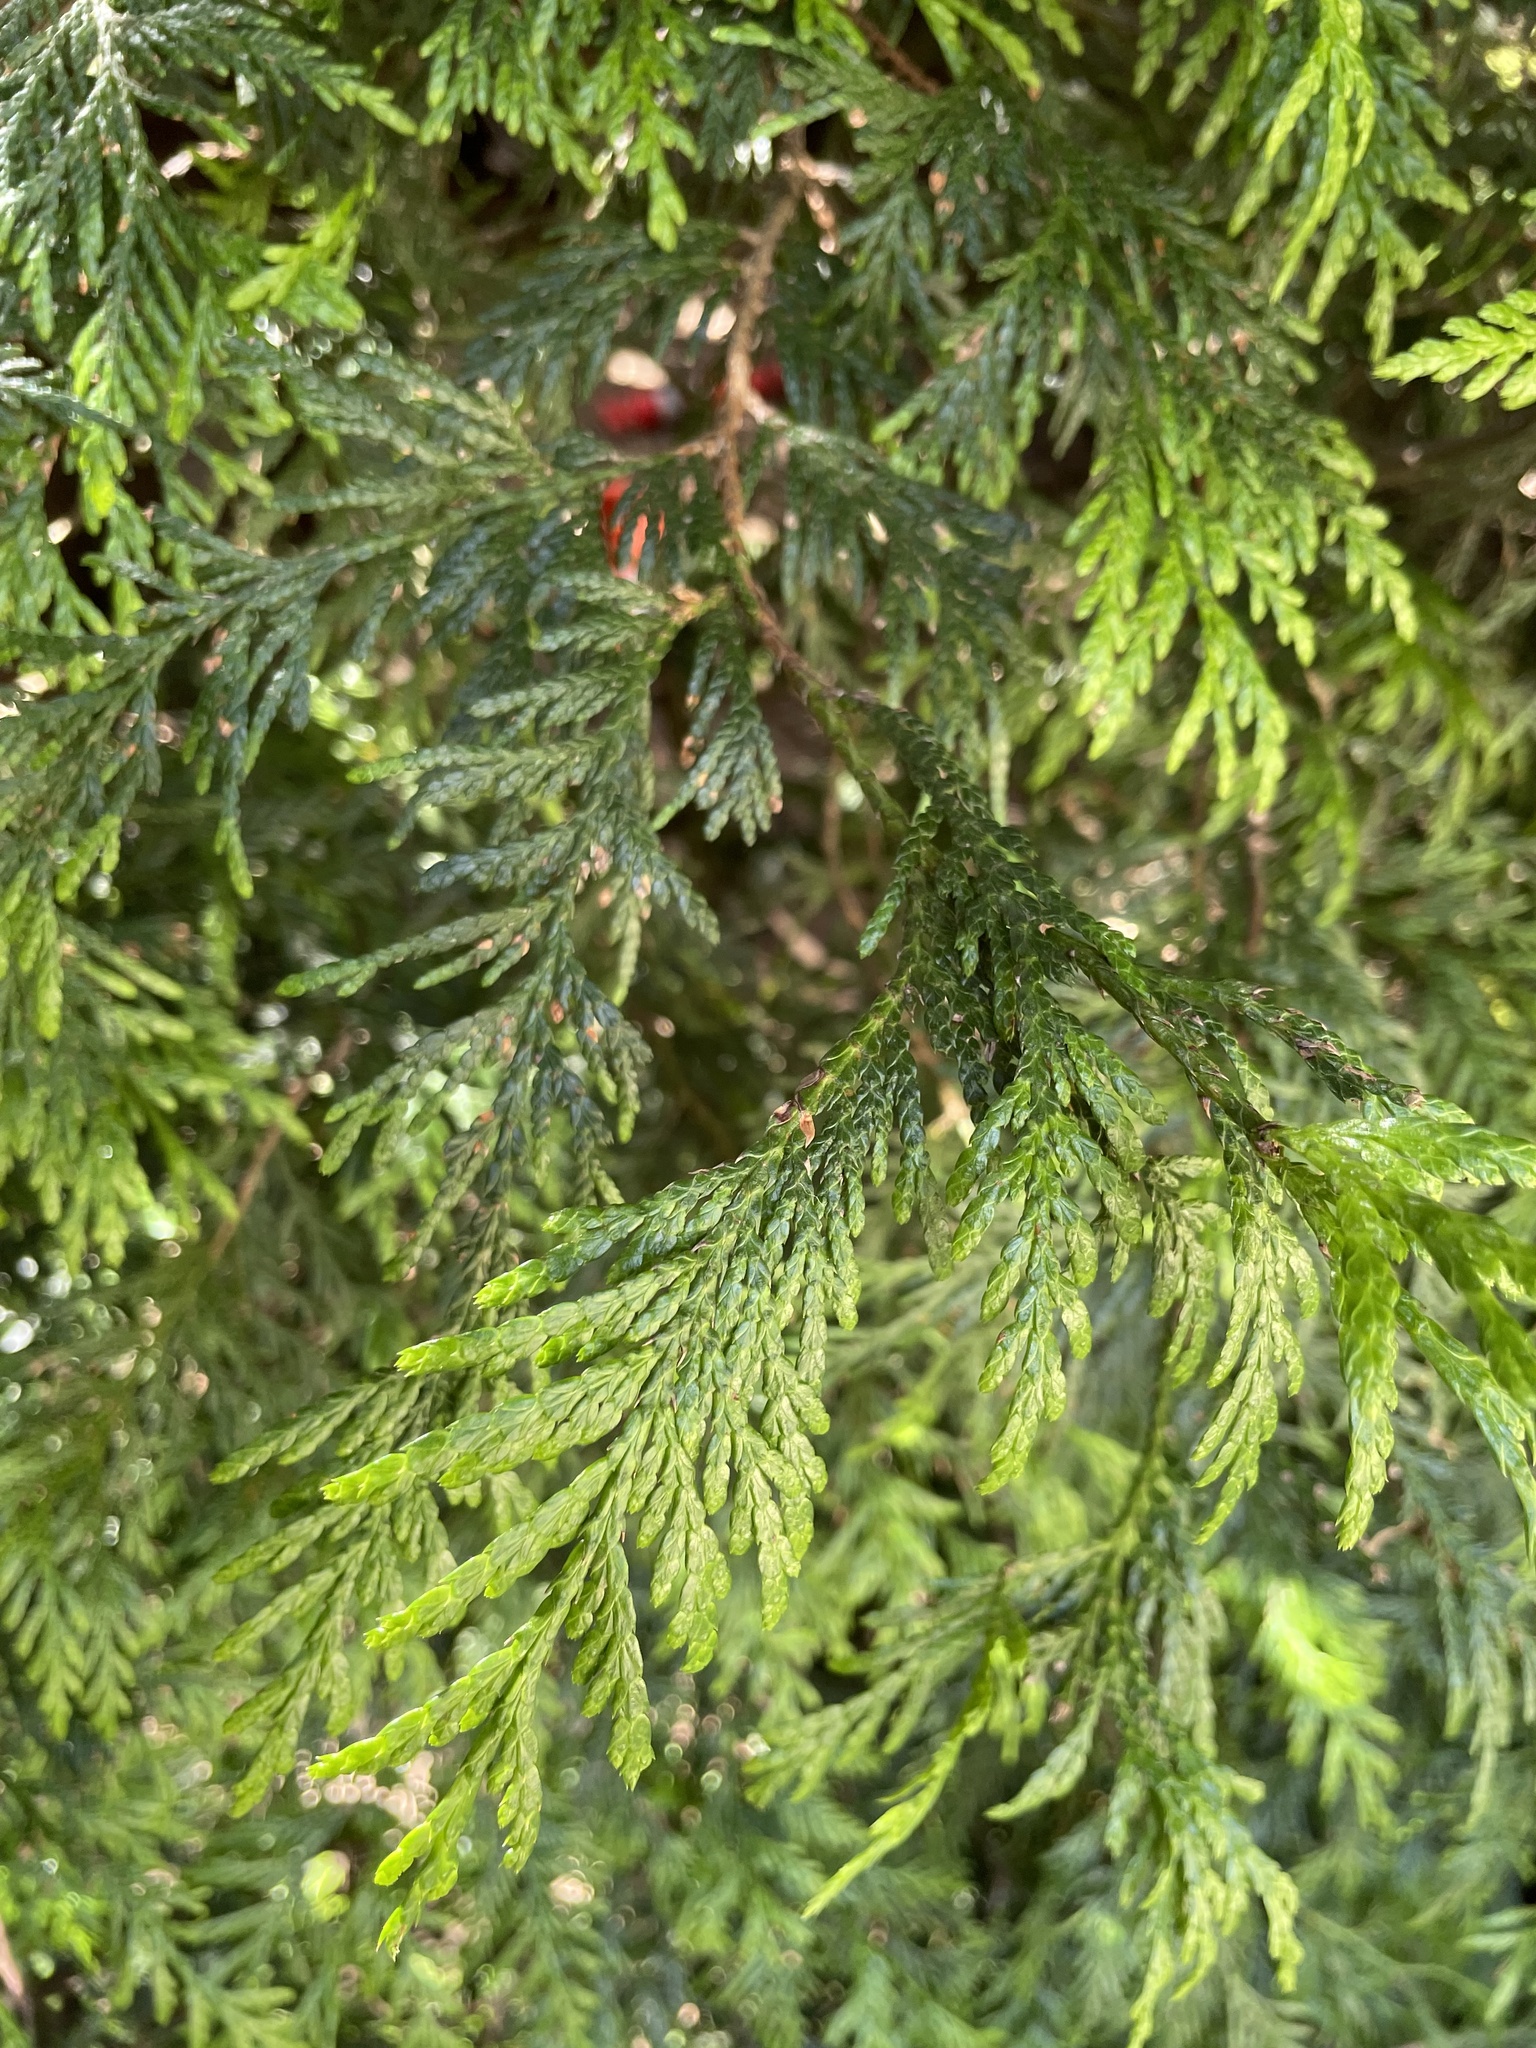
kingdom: Plantae
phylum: Tracheophyta
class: Pinopsida
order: Pinales
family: Cupressaceae
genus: Thuja
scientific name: Thuja plicata
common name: Western red-cedar
